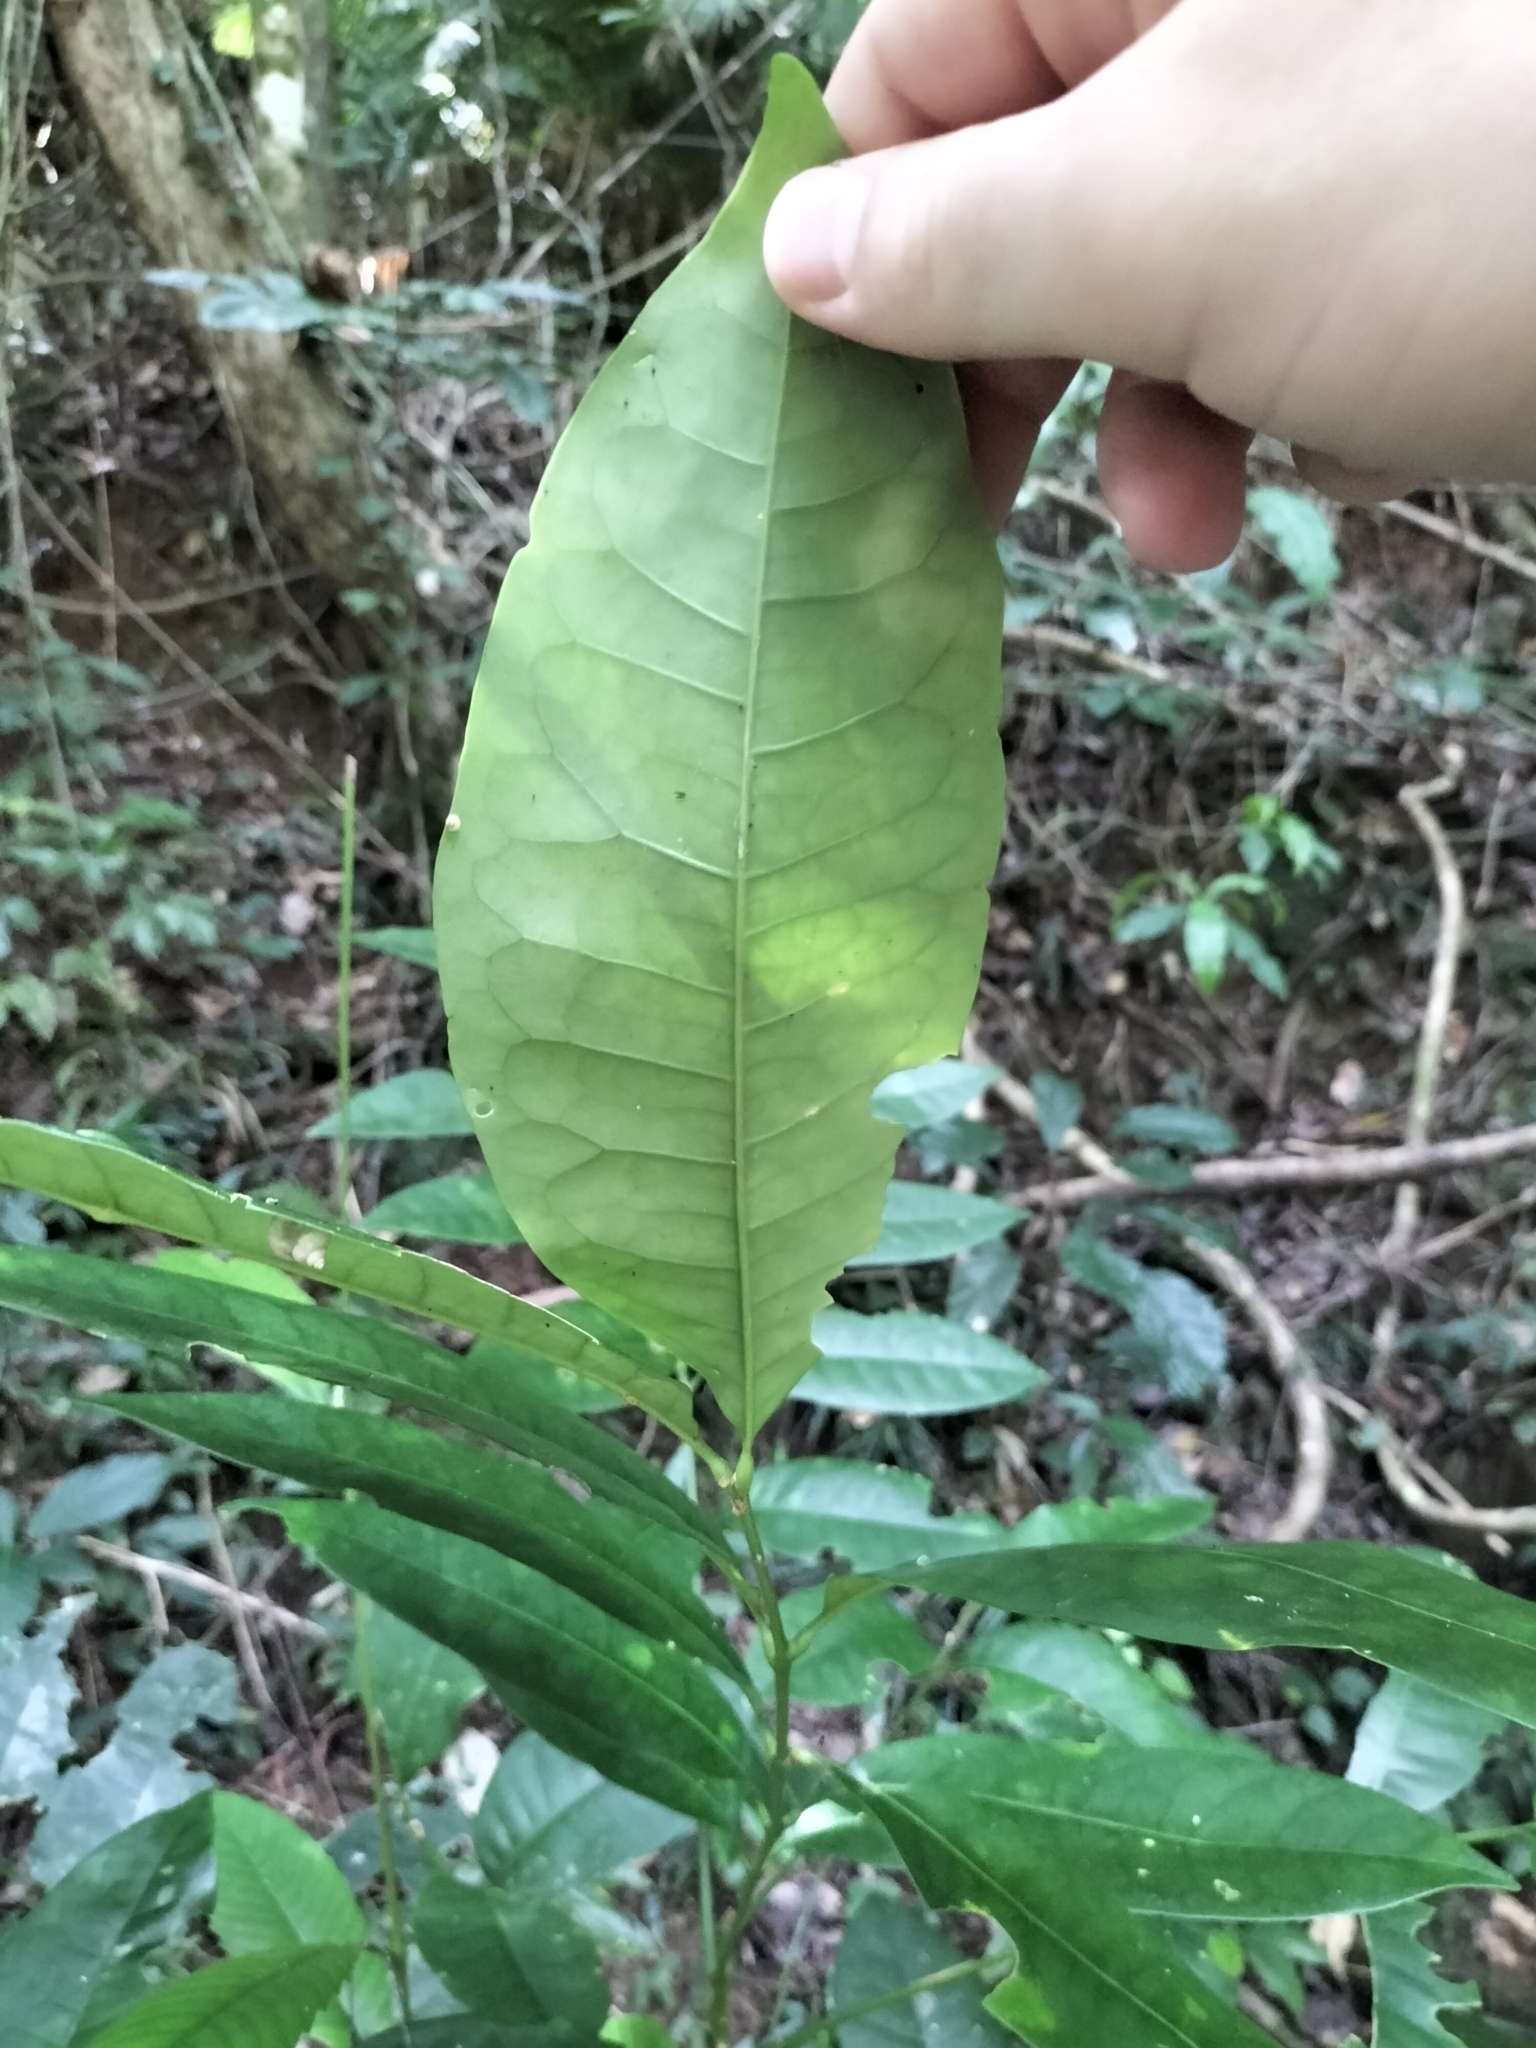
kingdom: Plantae
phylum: Tracheophyta
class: Magnoliopsida
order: Sapindales
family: Rutaceae
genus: Flindersia
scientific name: Flindersia brayleyana
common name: Queensland maple
